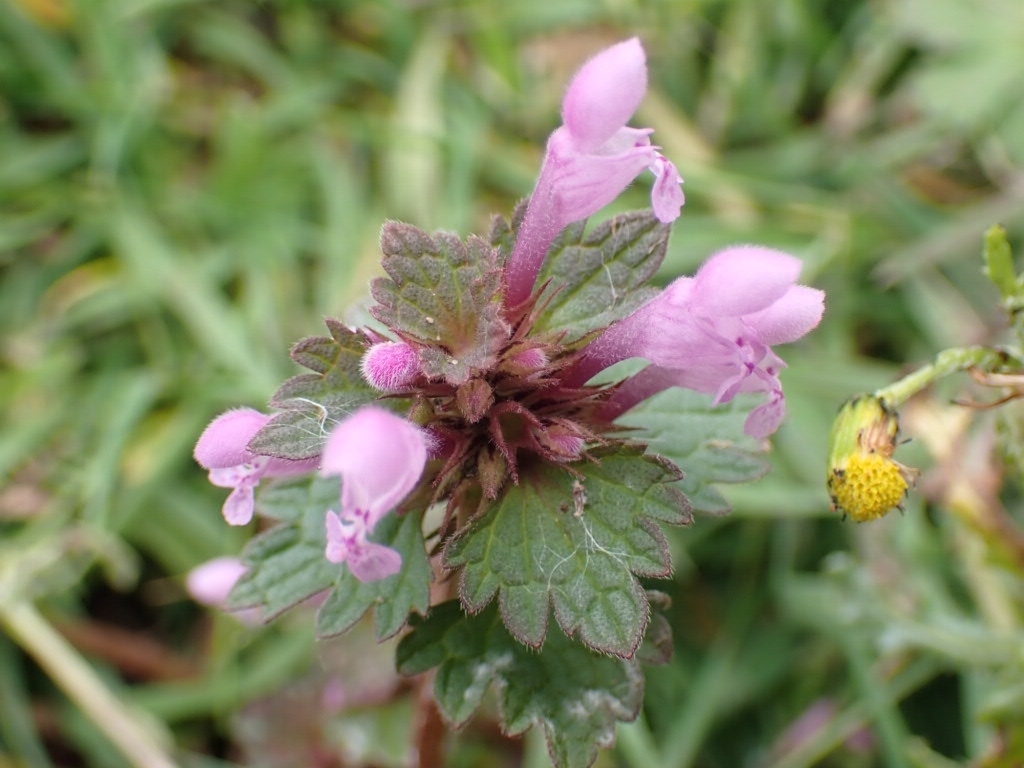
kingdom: Plantae
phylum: Tracheophyta
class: Magnoliopsida
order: Lamiales
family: Lamiaceae
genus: Lamium
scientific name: Lamium hybridum
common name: Cut-leaved dead-nettle
